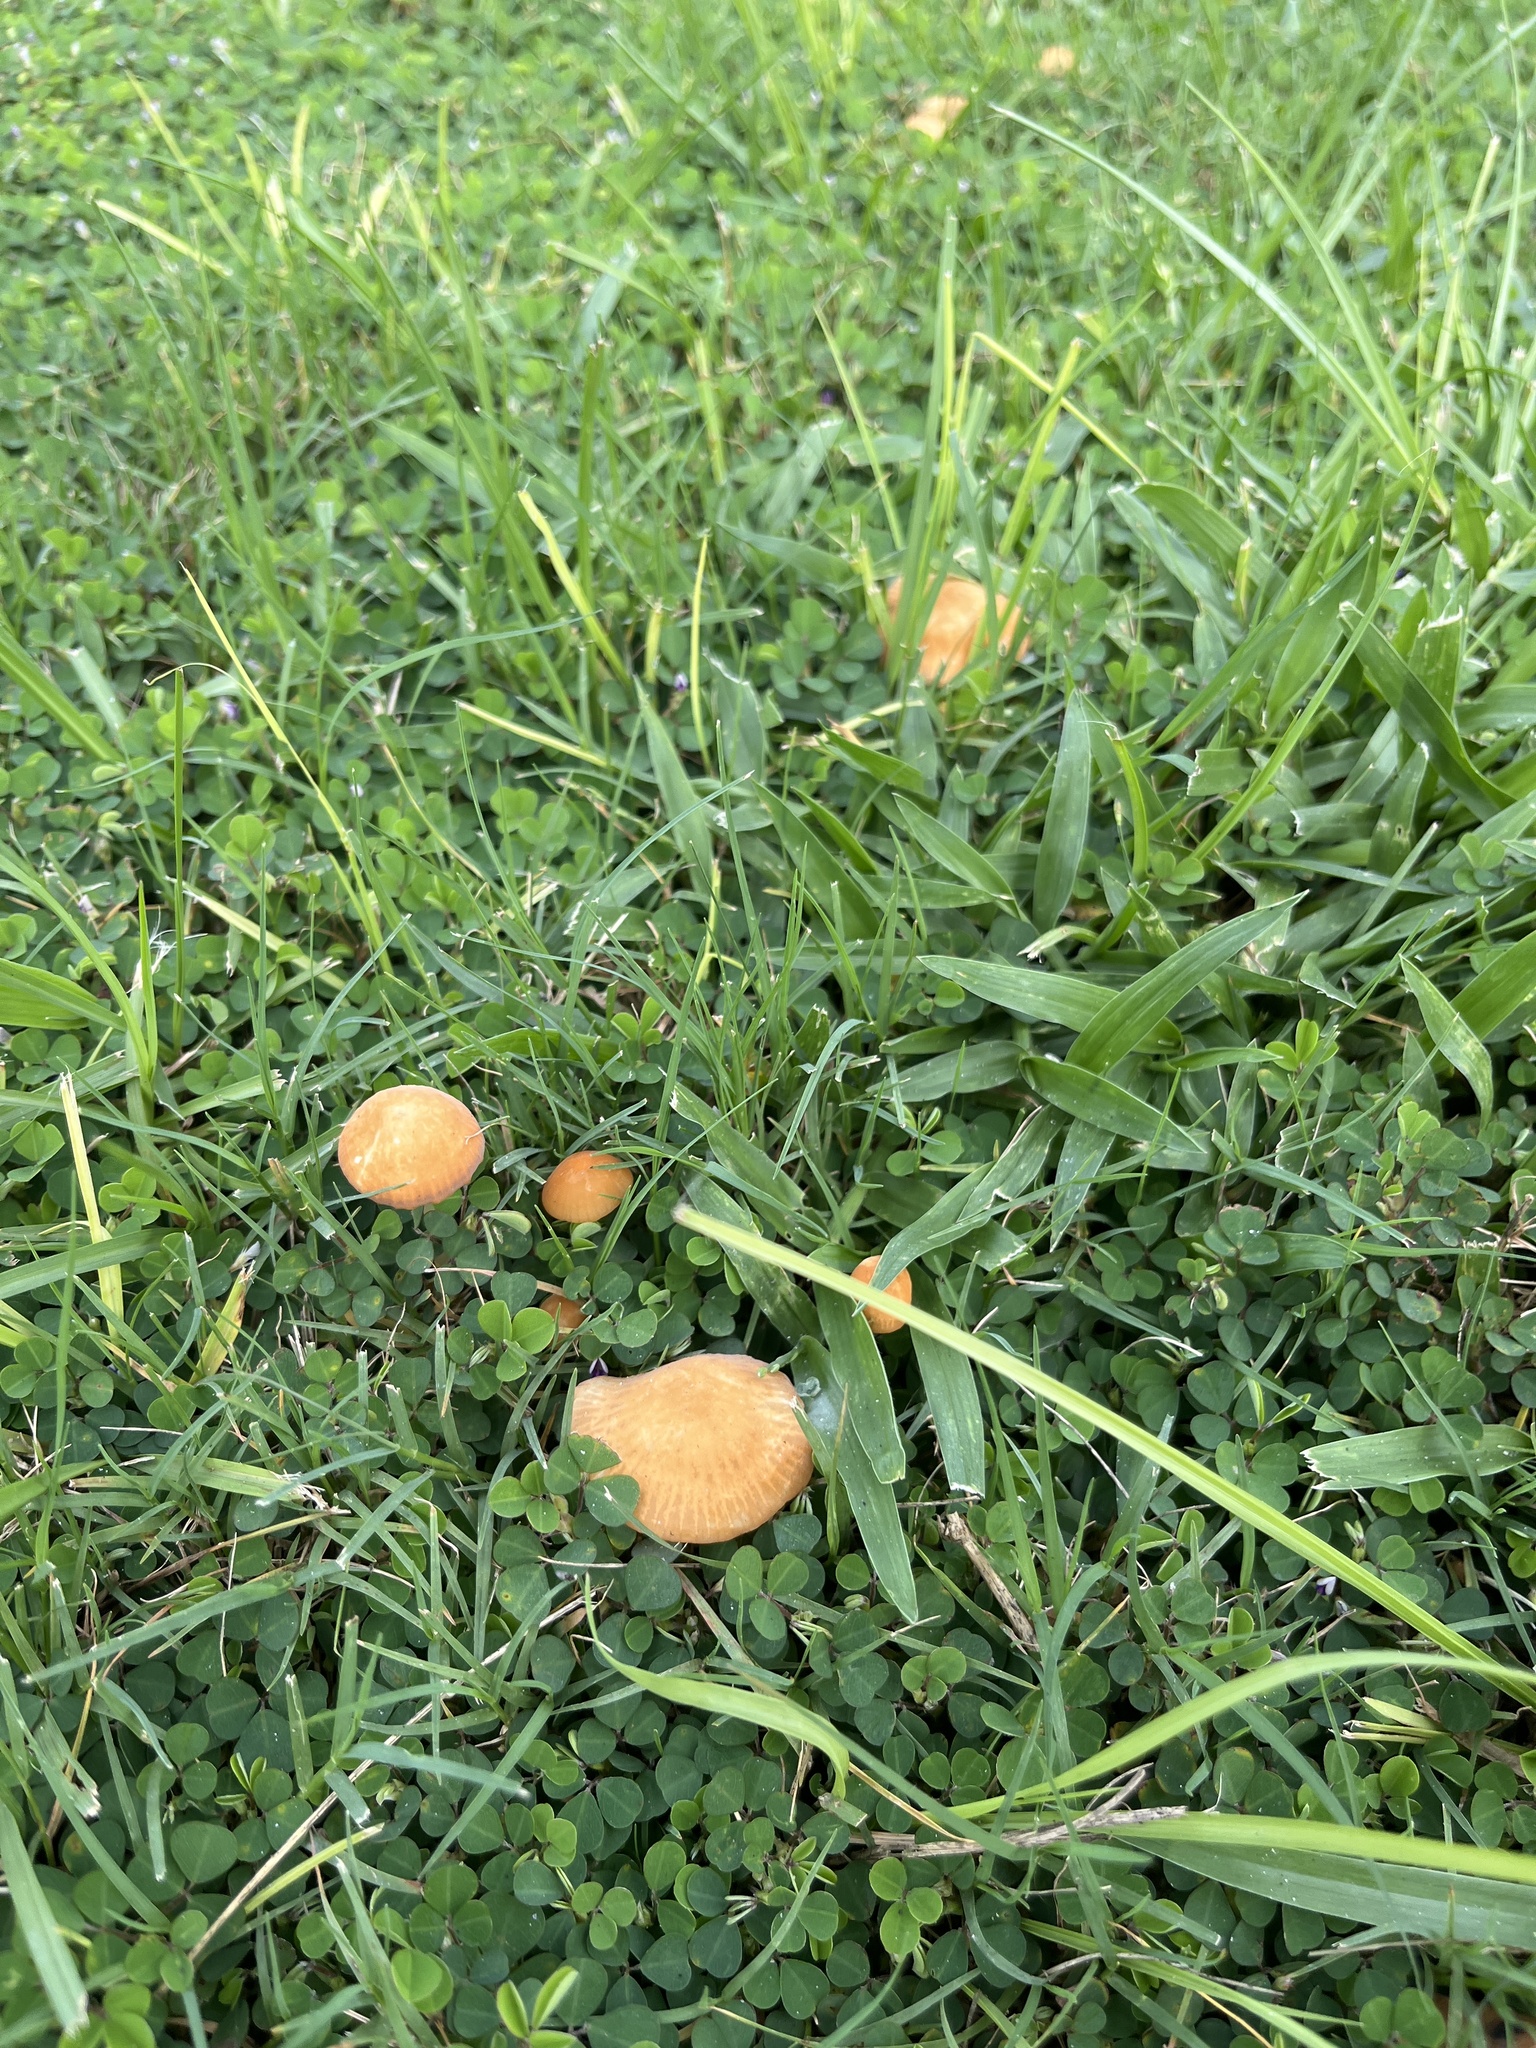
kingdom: Fungi
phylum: Basidiomycota
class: Agaricomycetes
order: Agaricales
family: Marasmiaceae
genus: Marasmius
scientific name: Marasmius vagus
